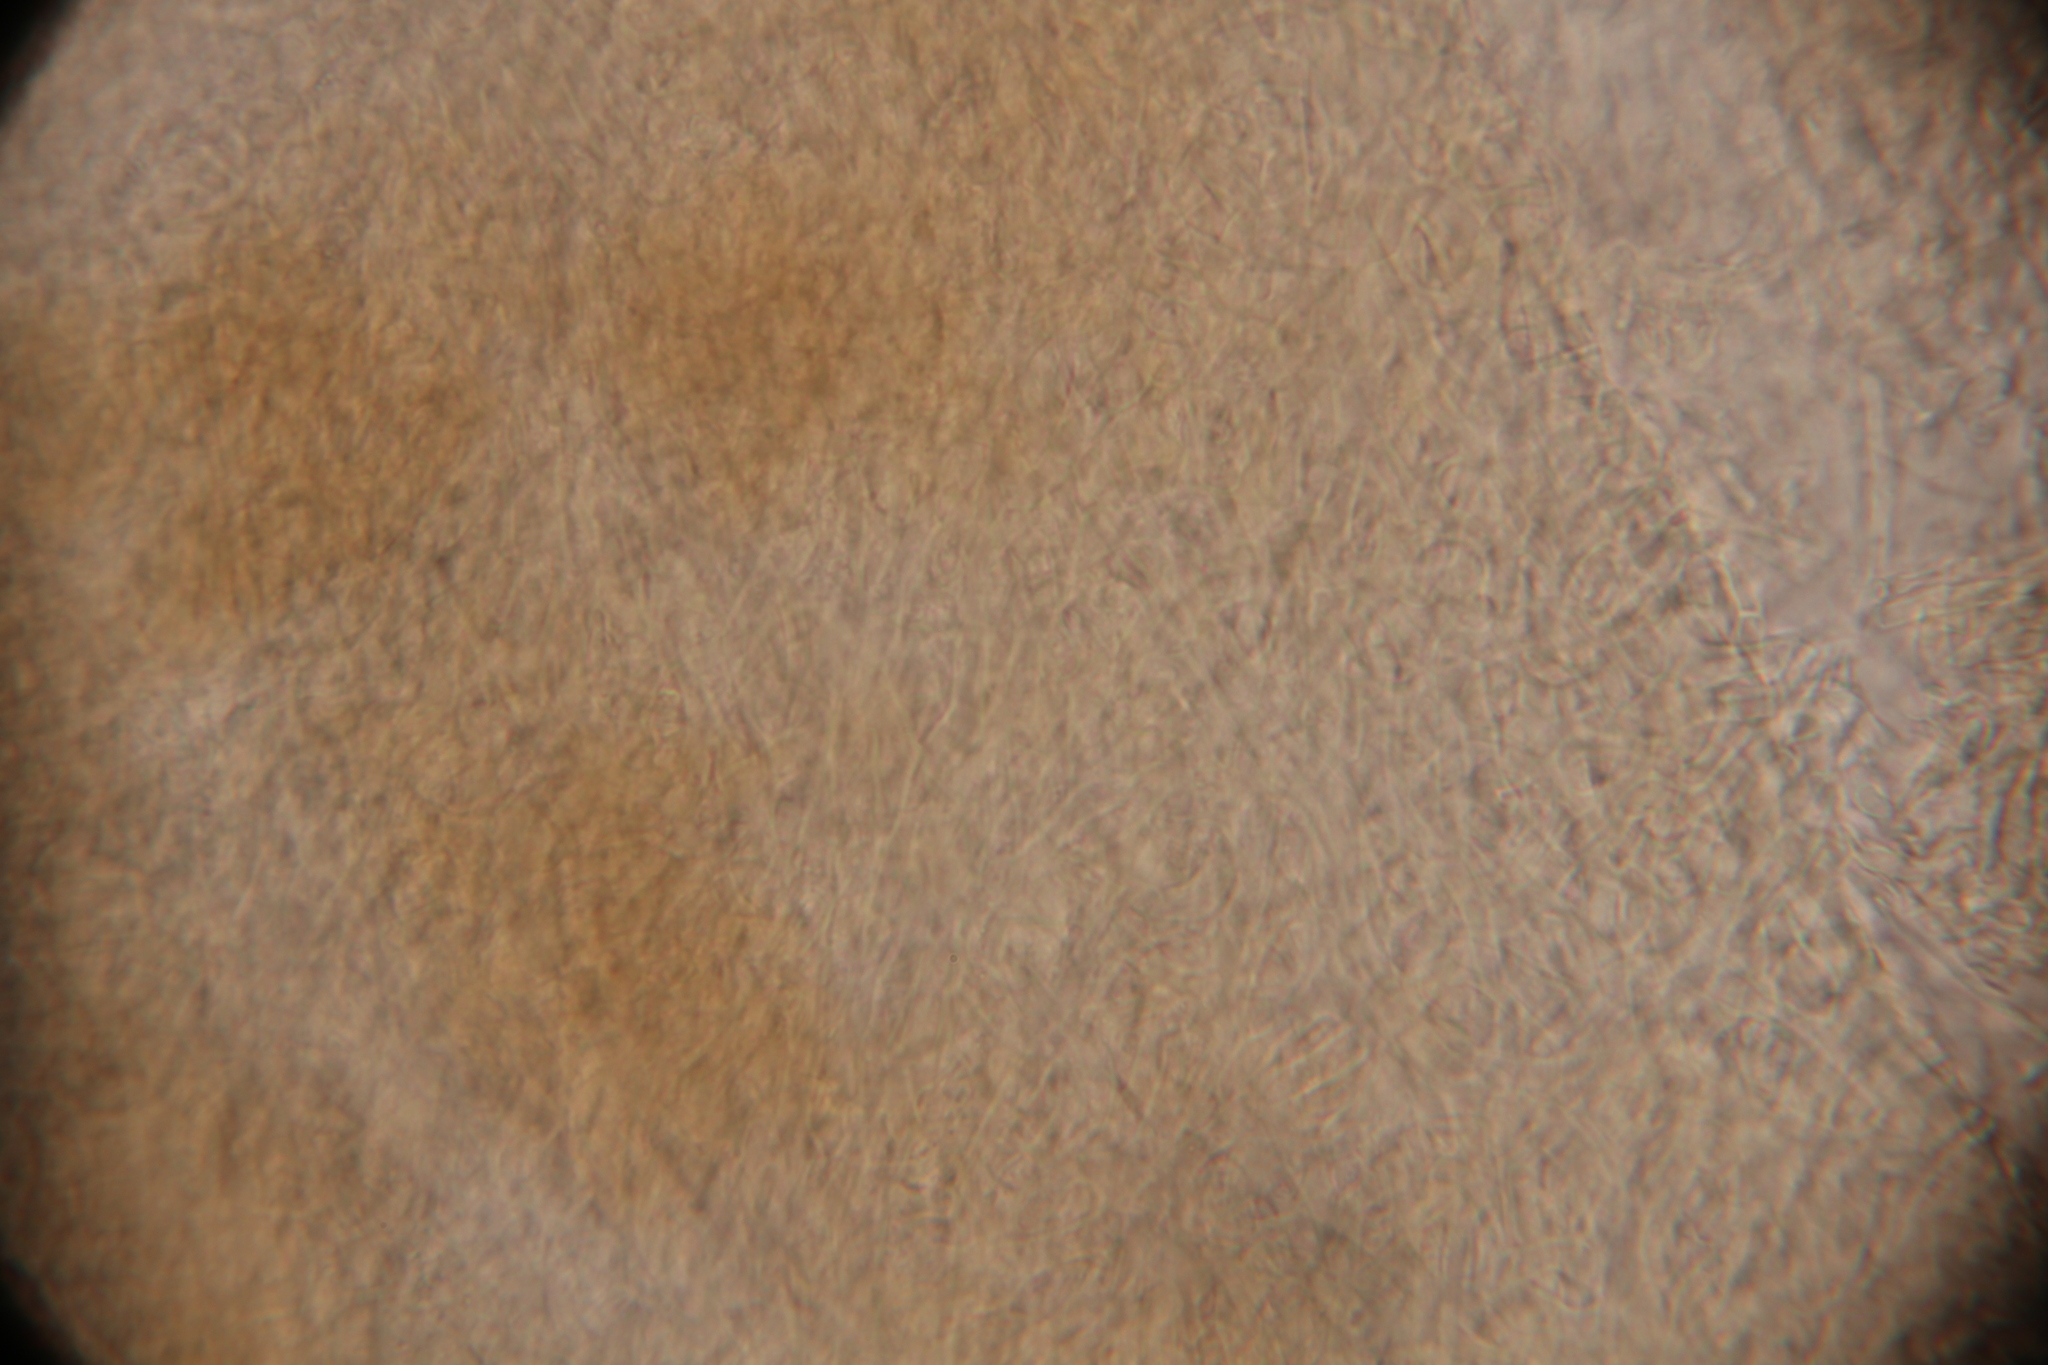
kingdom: Fungi
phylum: Ascomycota
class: Sordariomycetes
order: Hypocreales
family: Ophiocordycipitaceae
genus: Ophiocordyceps
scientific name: Ophiocordyceps variabilis
